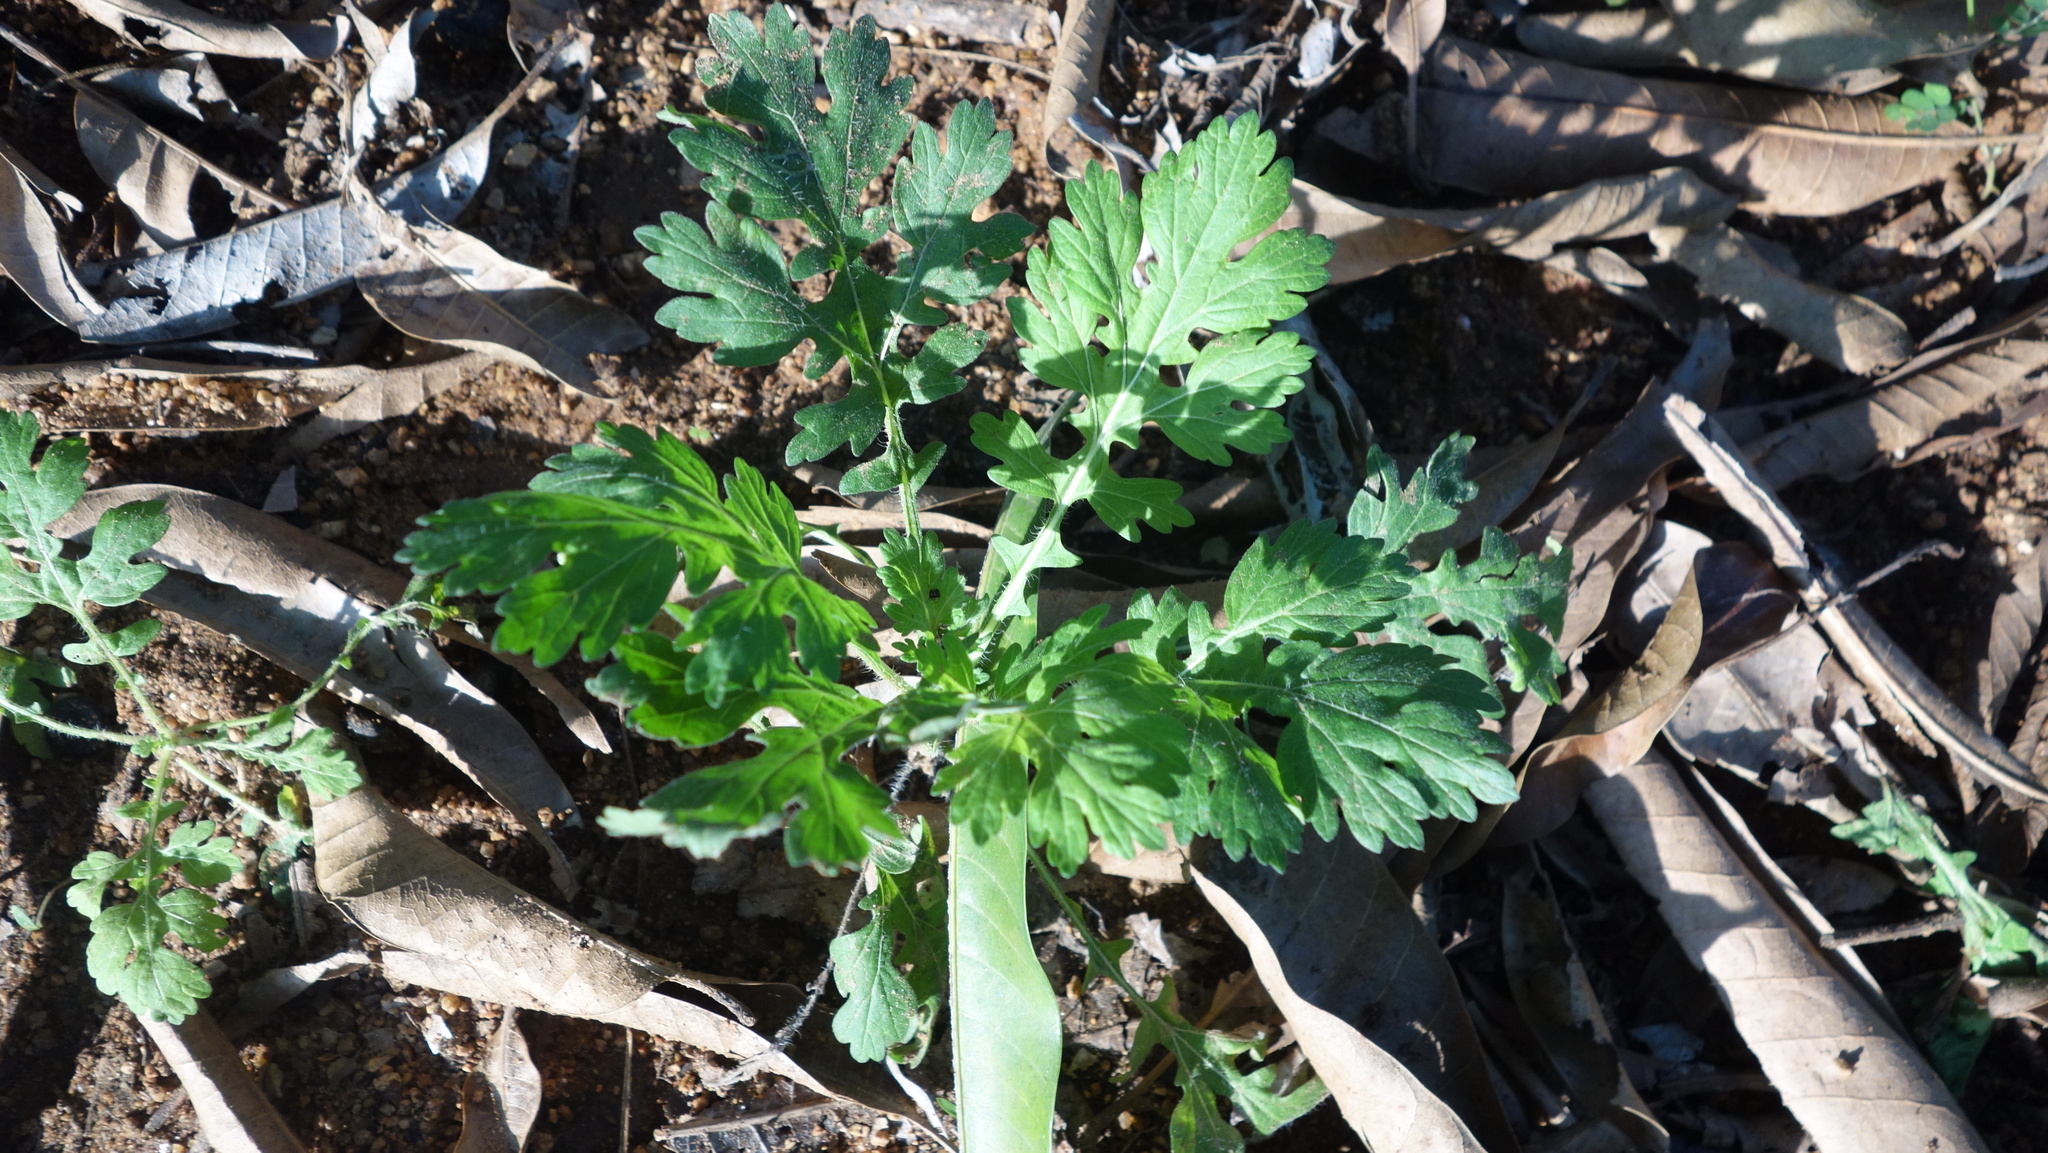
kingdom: Plantae
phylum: Tracheophyta
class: Magnoliopsida
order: Asterales
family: Asteraceae
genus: Parthenium
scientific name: Parthenium hysterophorus
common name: Santa maria feverfew
